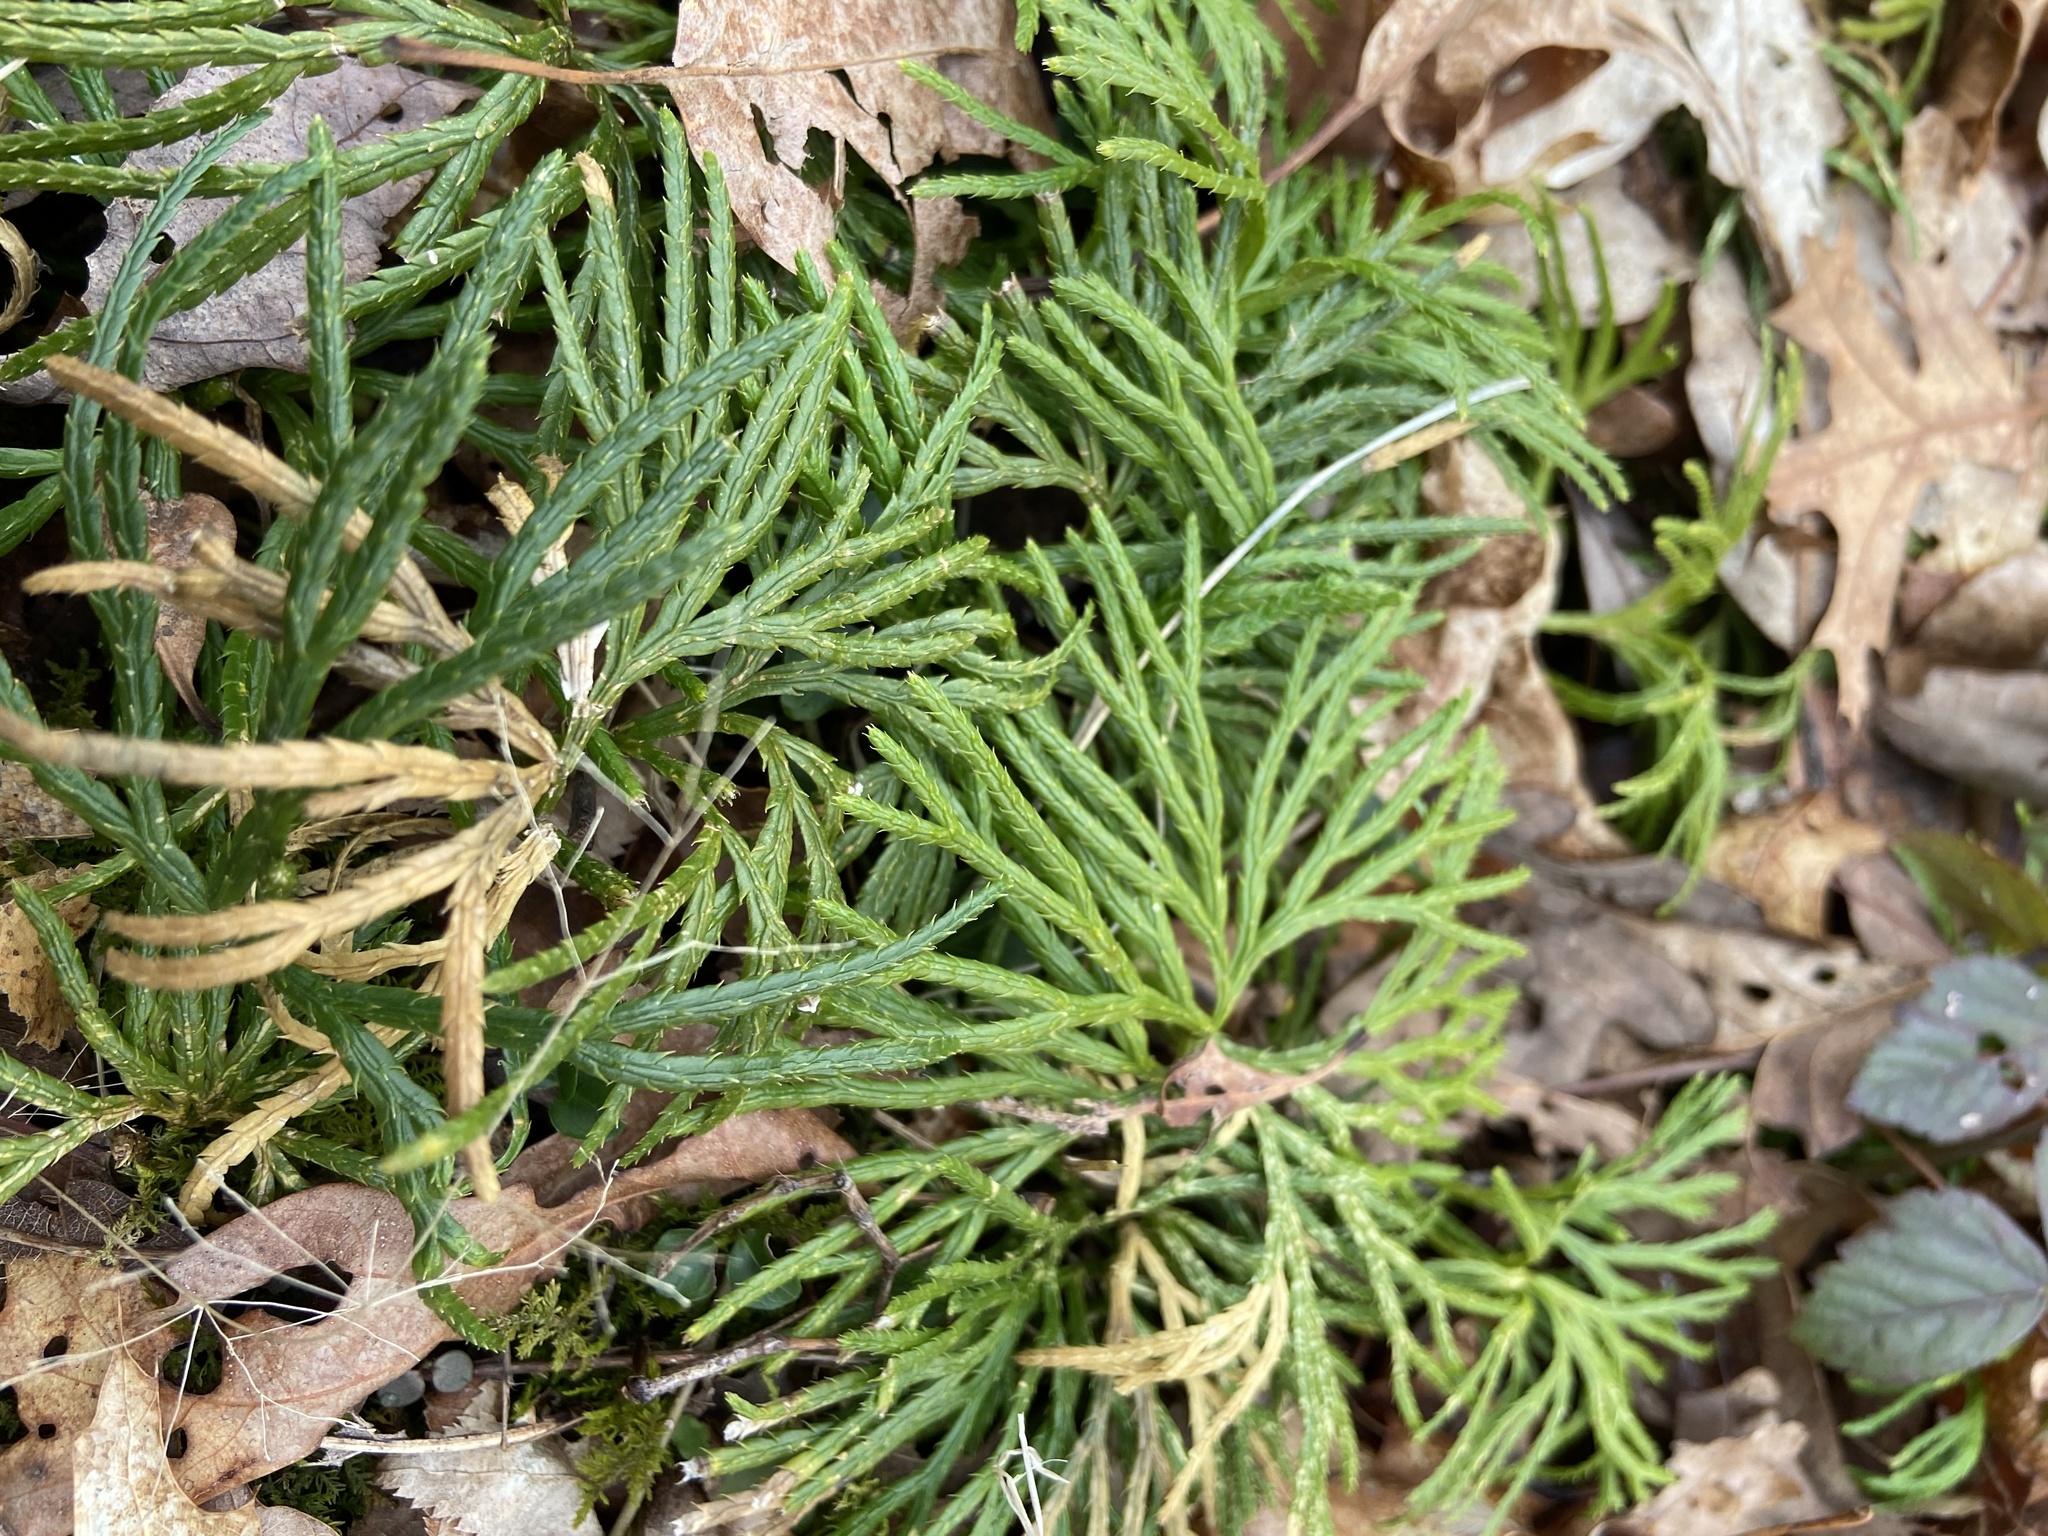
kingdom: Plantae
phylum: Tracheophyta
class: Lycopodiopsida
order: Lycopodiales
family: Lycopodiaceae
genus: Diphasiastrum
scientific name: Diphasiastrum digitatum
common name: Southern running-pine
